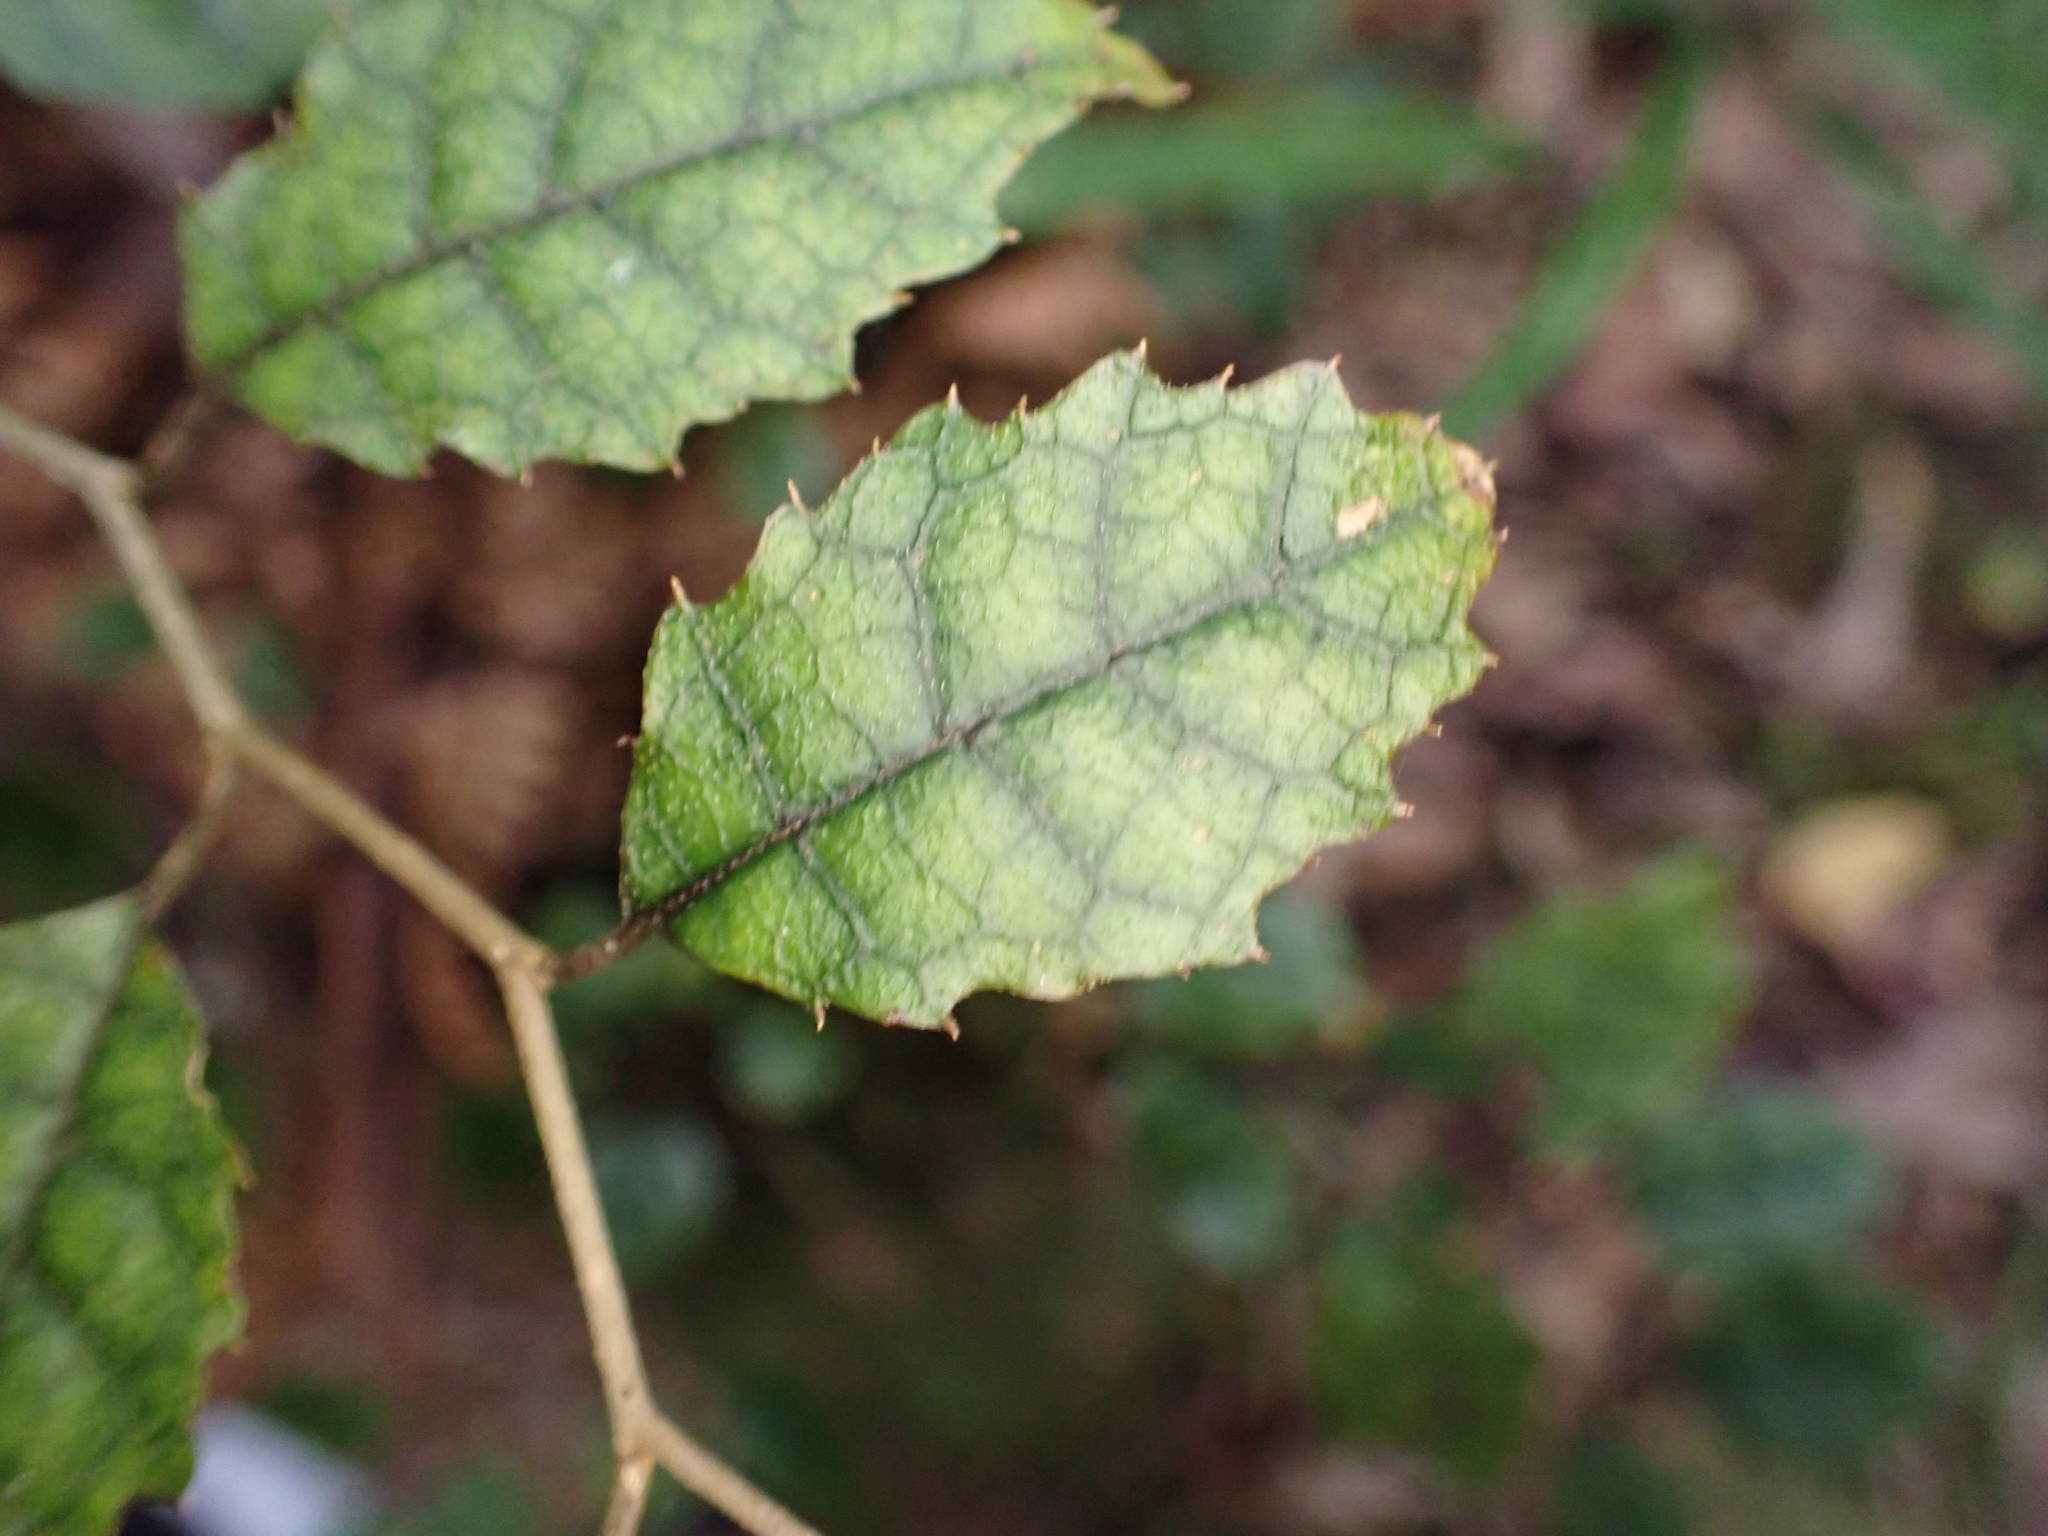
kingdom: Plantae
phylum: Tracheophyta
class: Magnoliopsida
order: Asterales
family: Rousseaceae
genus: Carpodetus
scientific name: Carpodetus serratus
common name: White mapau
